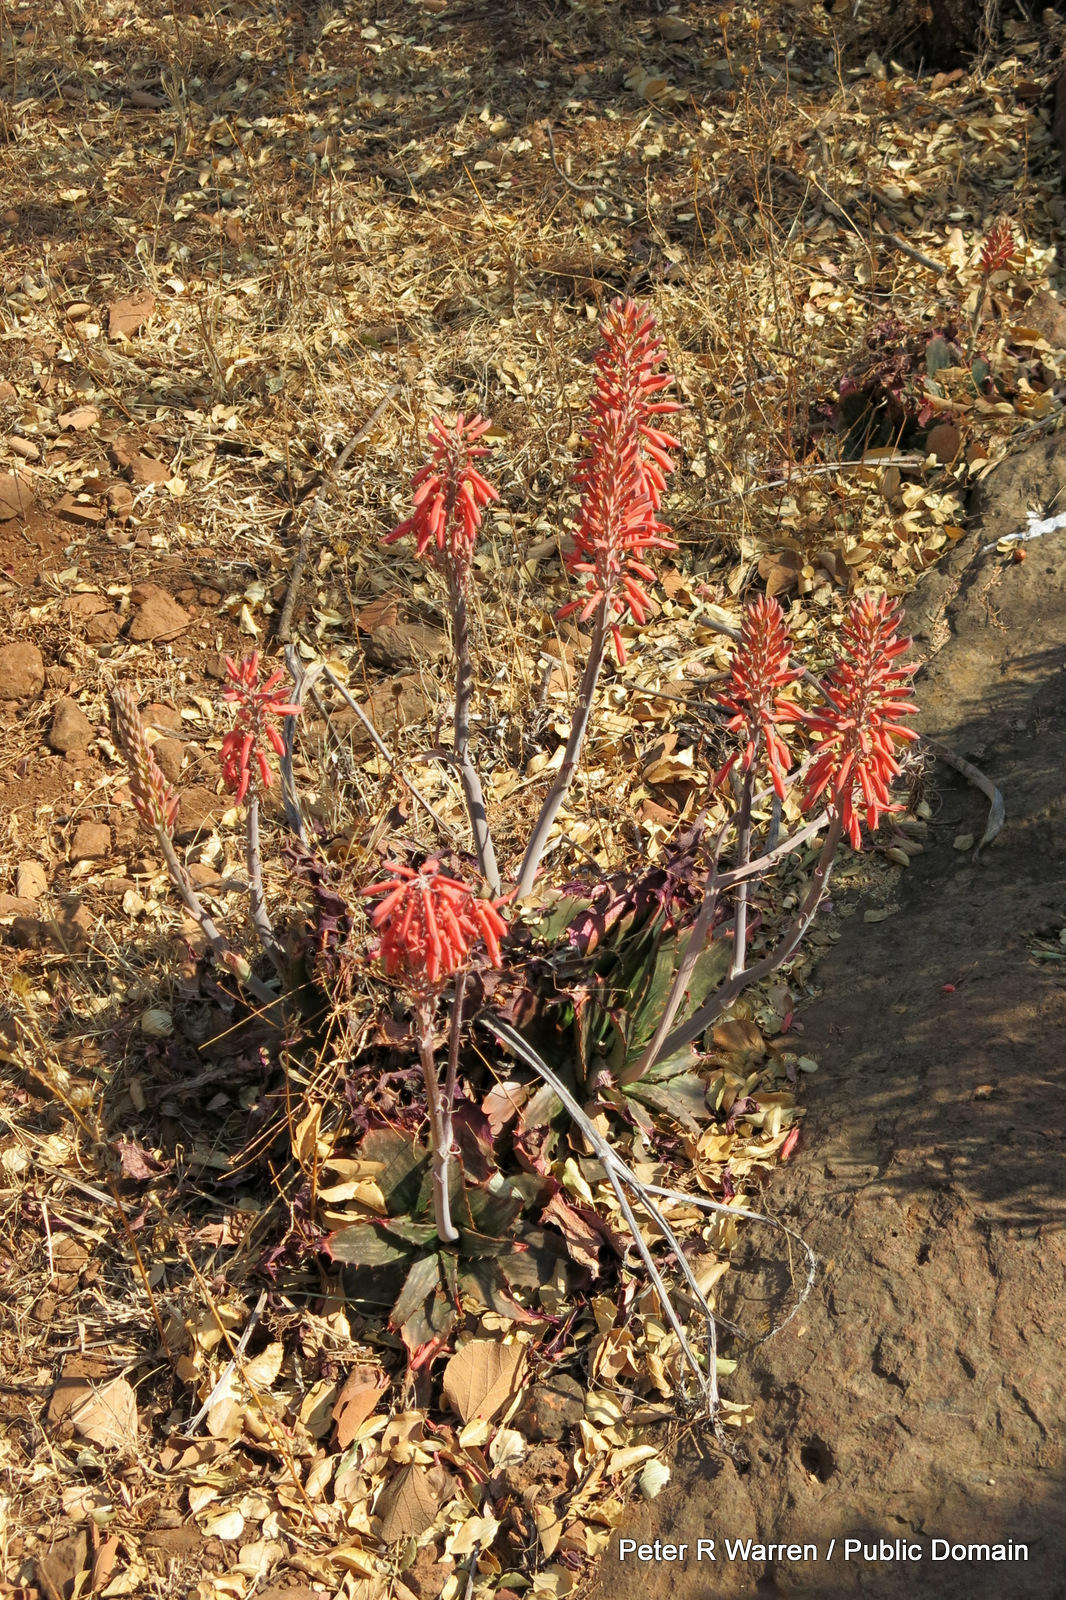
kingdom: Plantae
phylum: Tracheophyta
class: Liliopsida
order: Asparagales
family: Asphodelaceae
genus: Aloe
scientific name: Aloe davyana
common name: Spotted aloe
